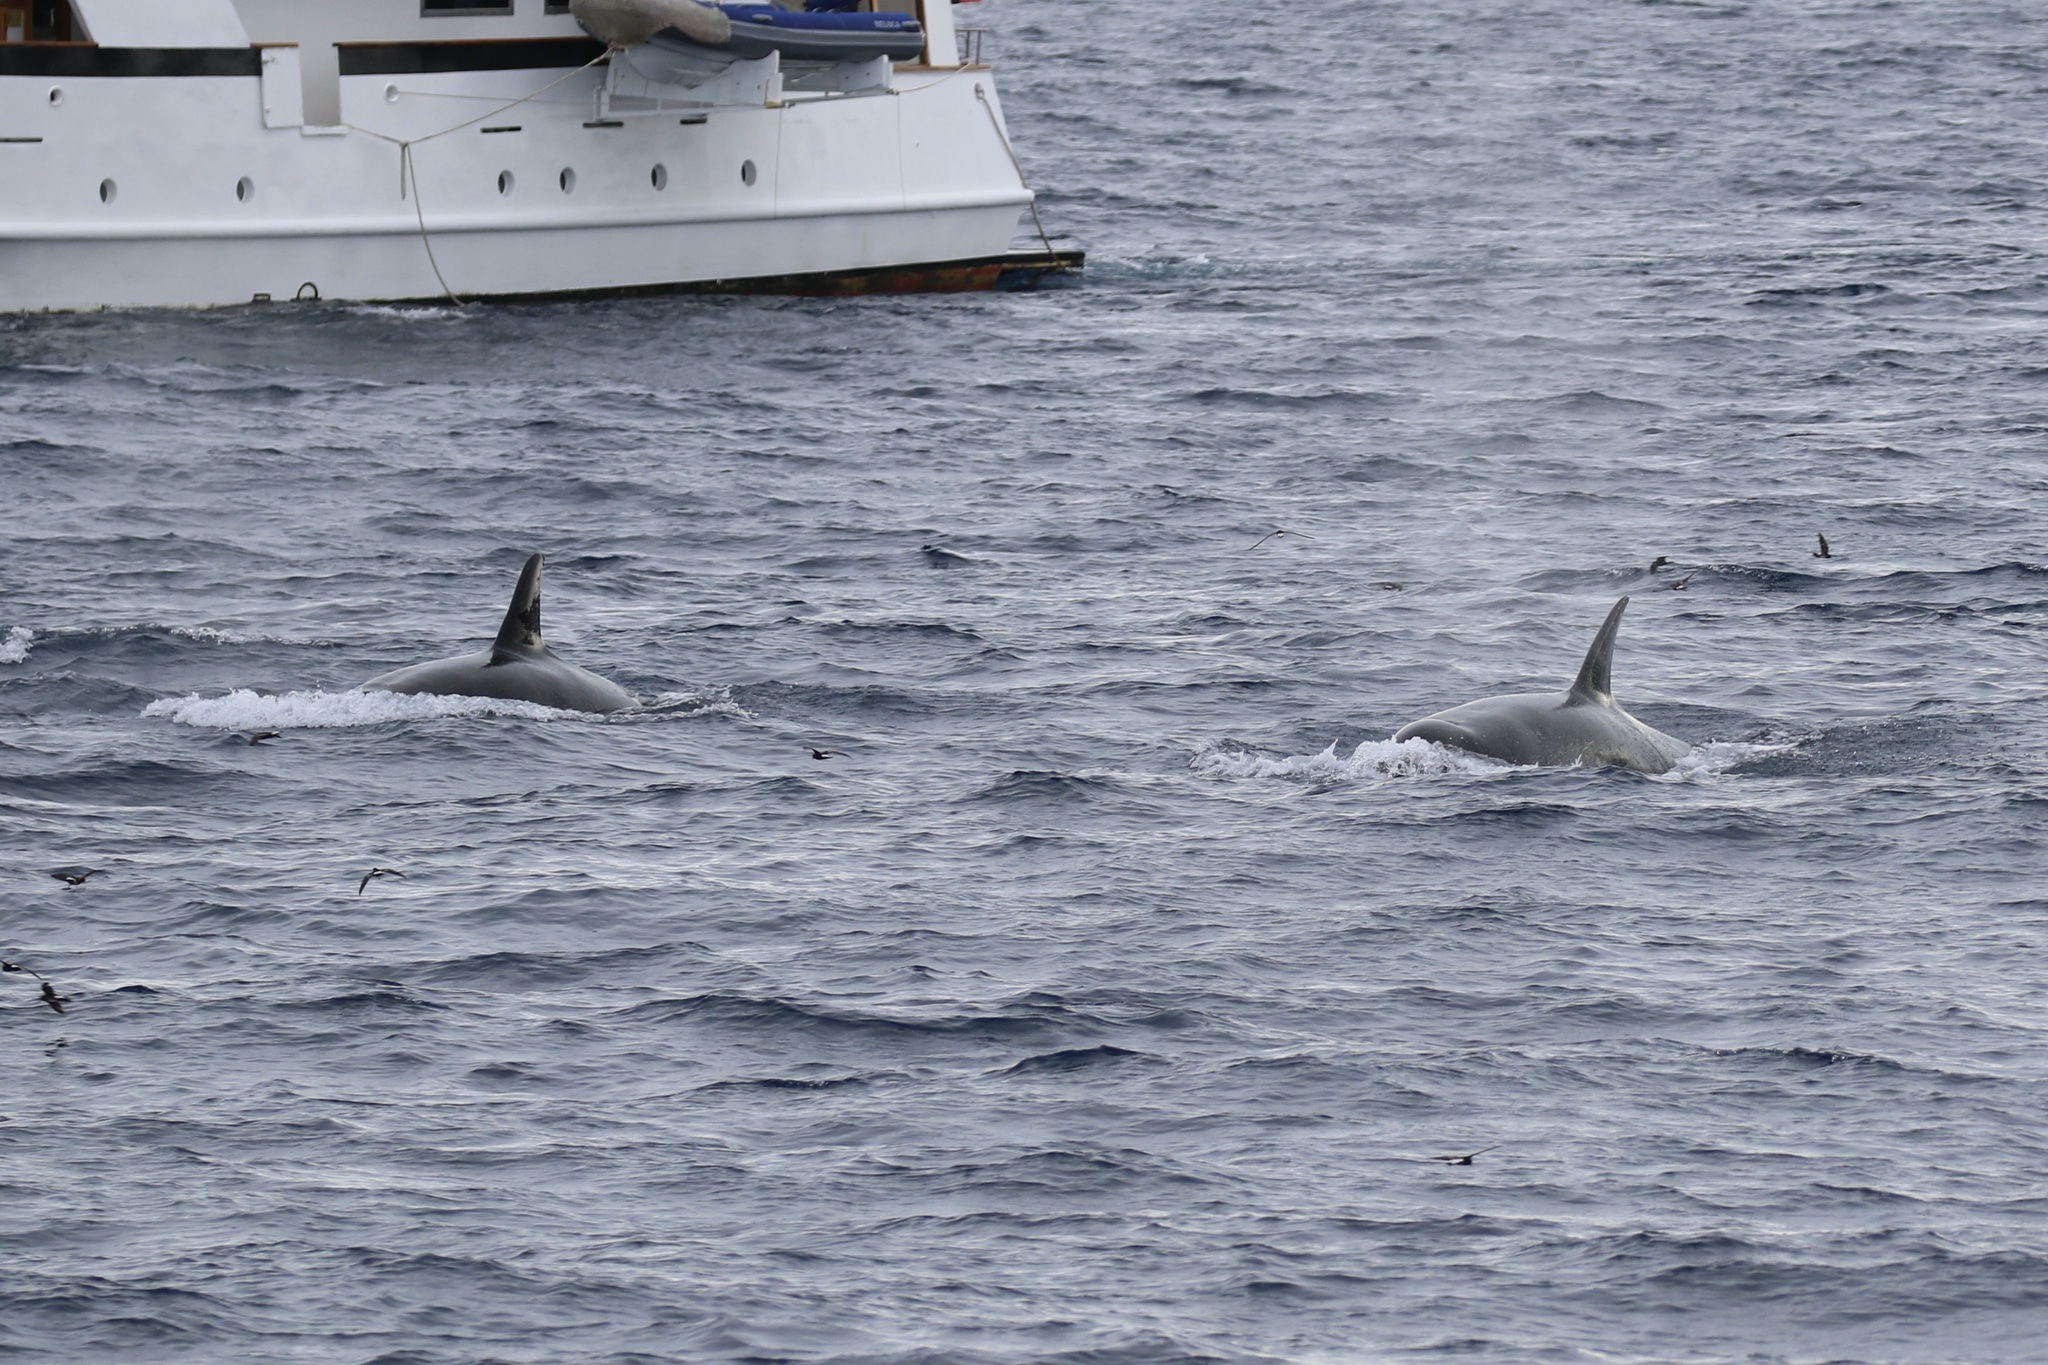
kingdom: Animalia
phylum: Chordata
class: Mammalia
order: Cetacea
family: Delphinidae
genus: Orcinus
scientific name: Orcinus orca
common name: Killer whale
